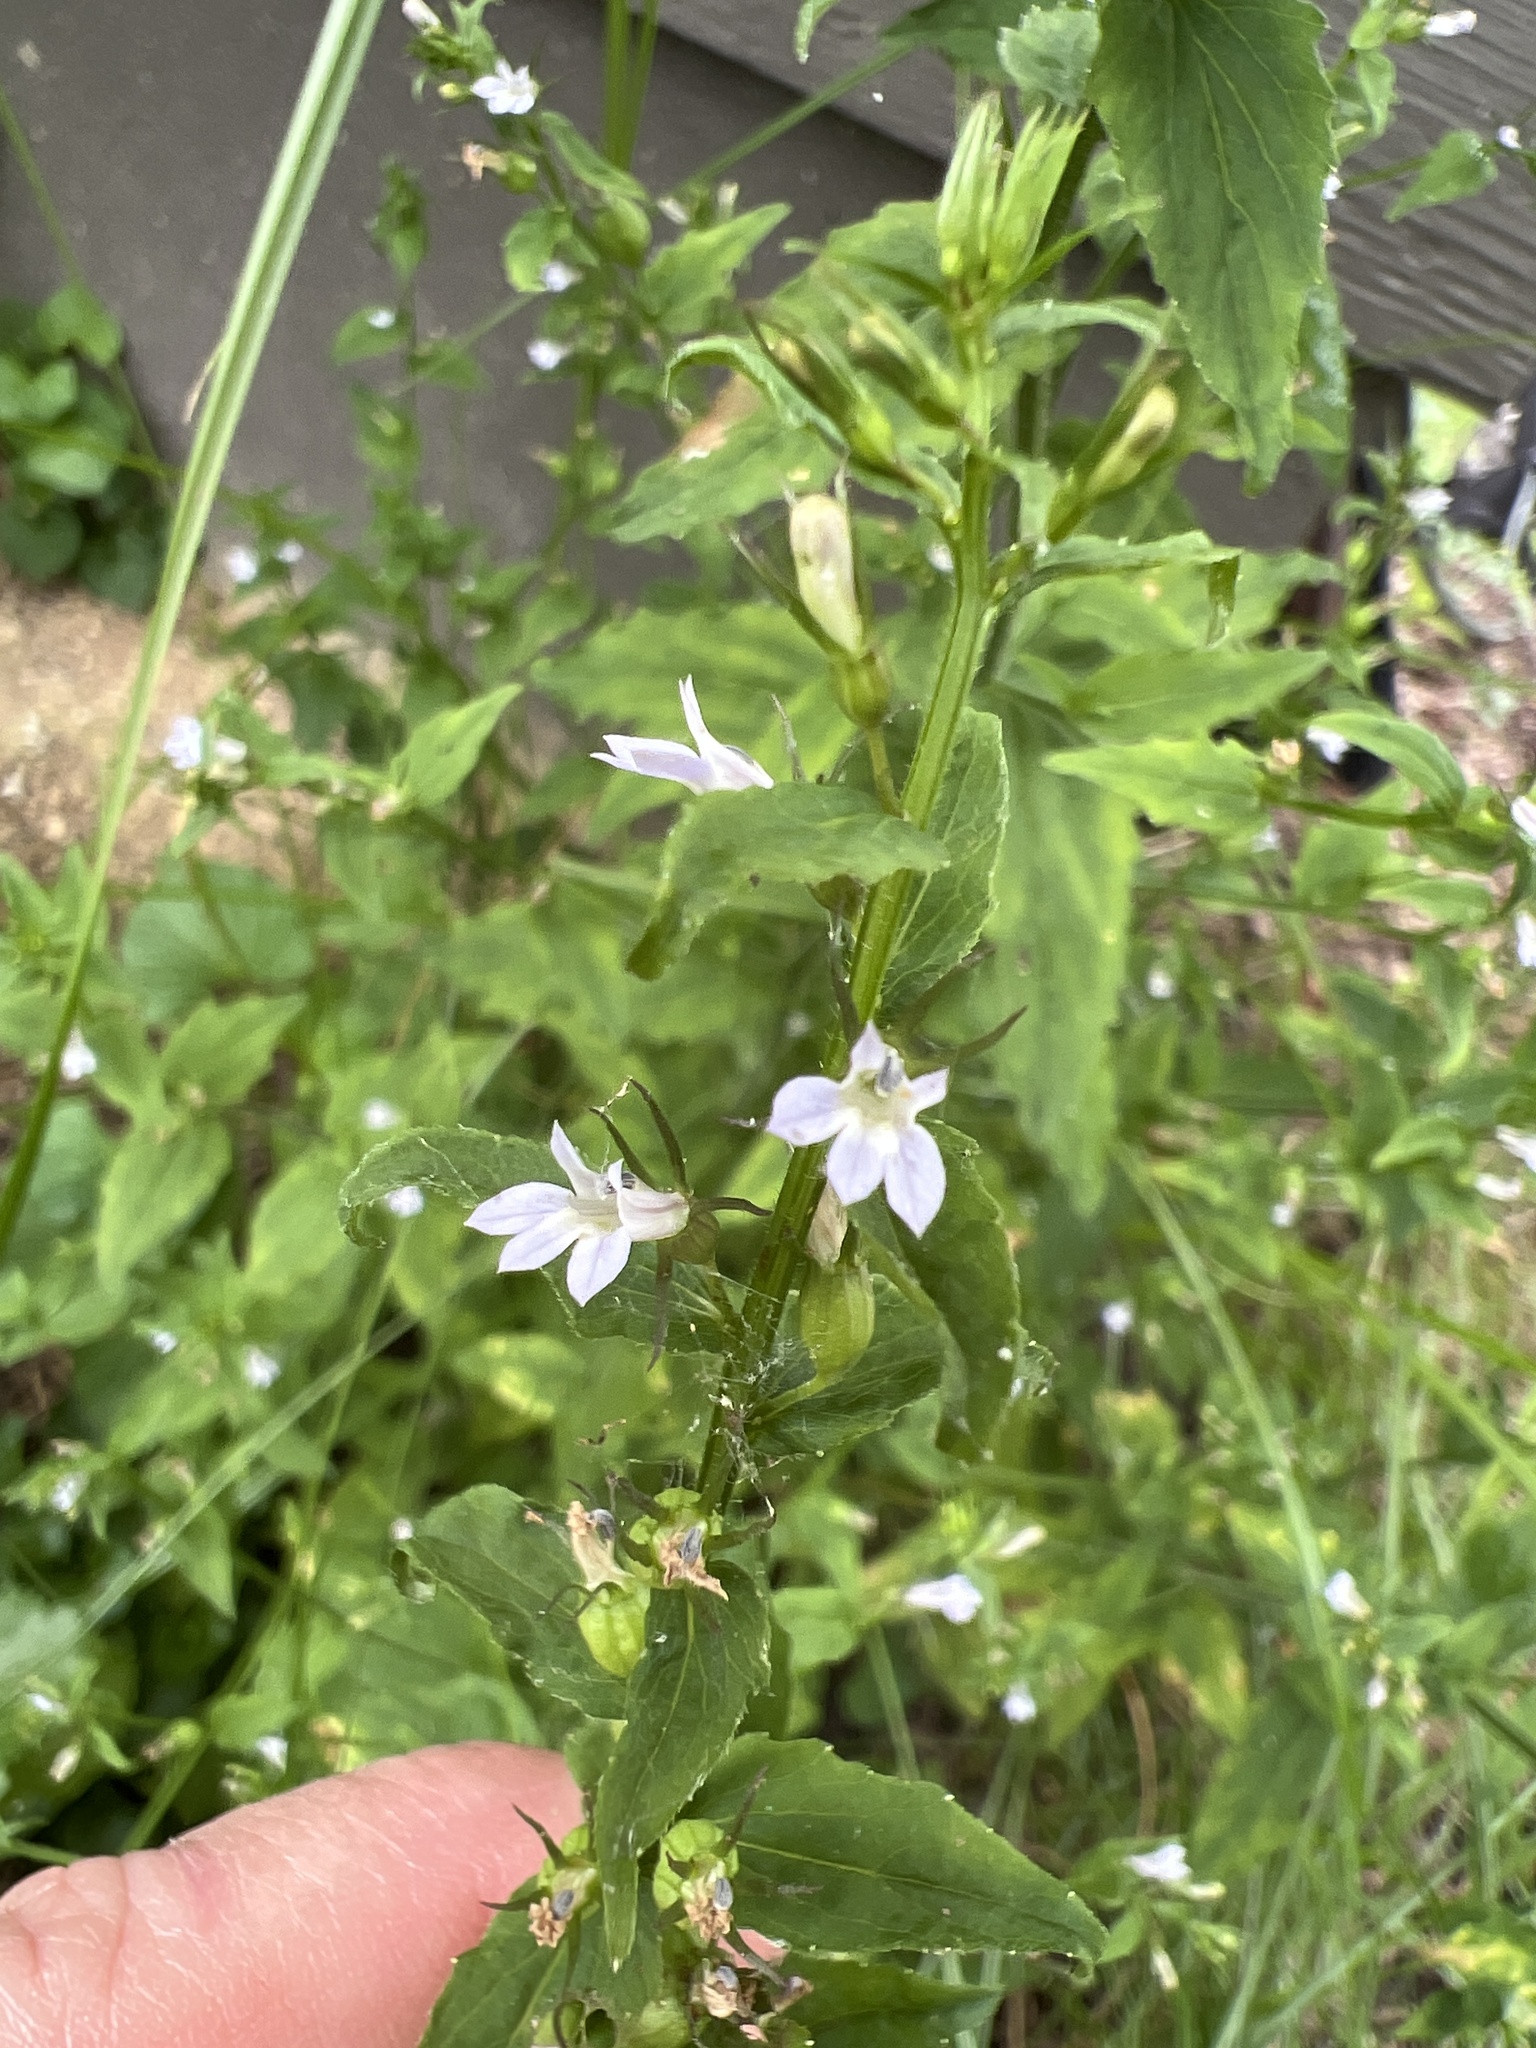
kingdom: Plantae
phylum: Tracheophyta
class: Magnoliopsida
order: Asterales
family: Campanulaceae
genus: Lobelia
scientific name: Lobelia inflata
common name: Indian tobacco
